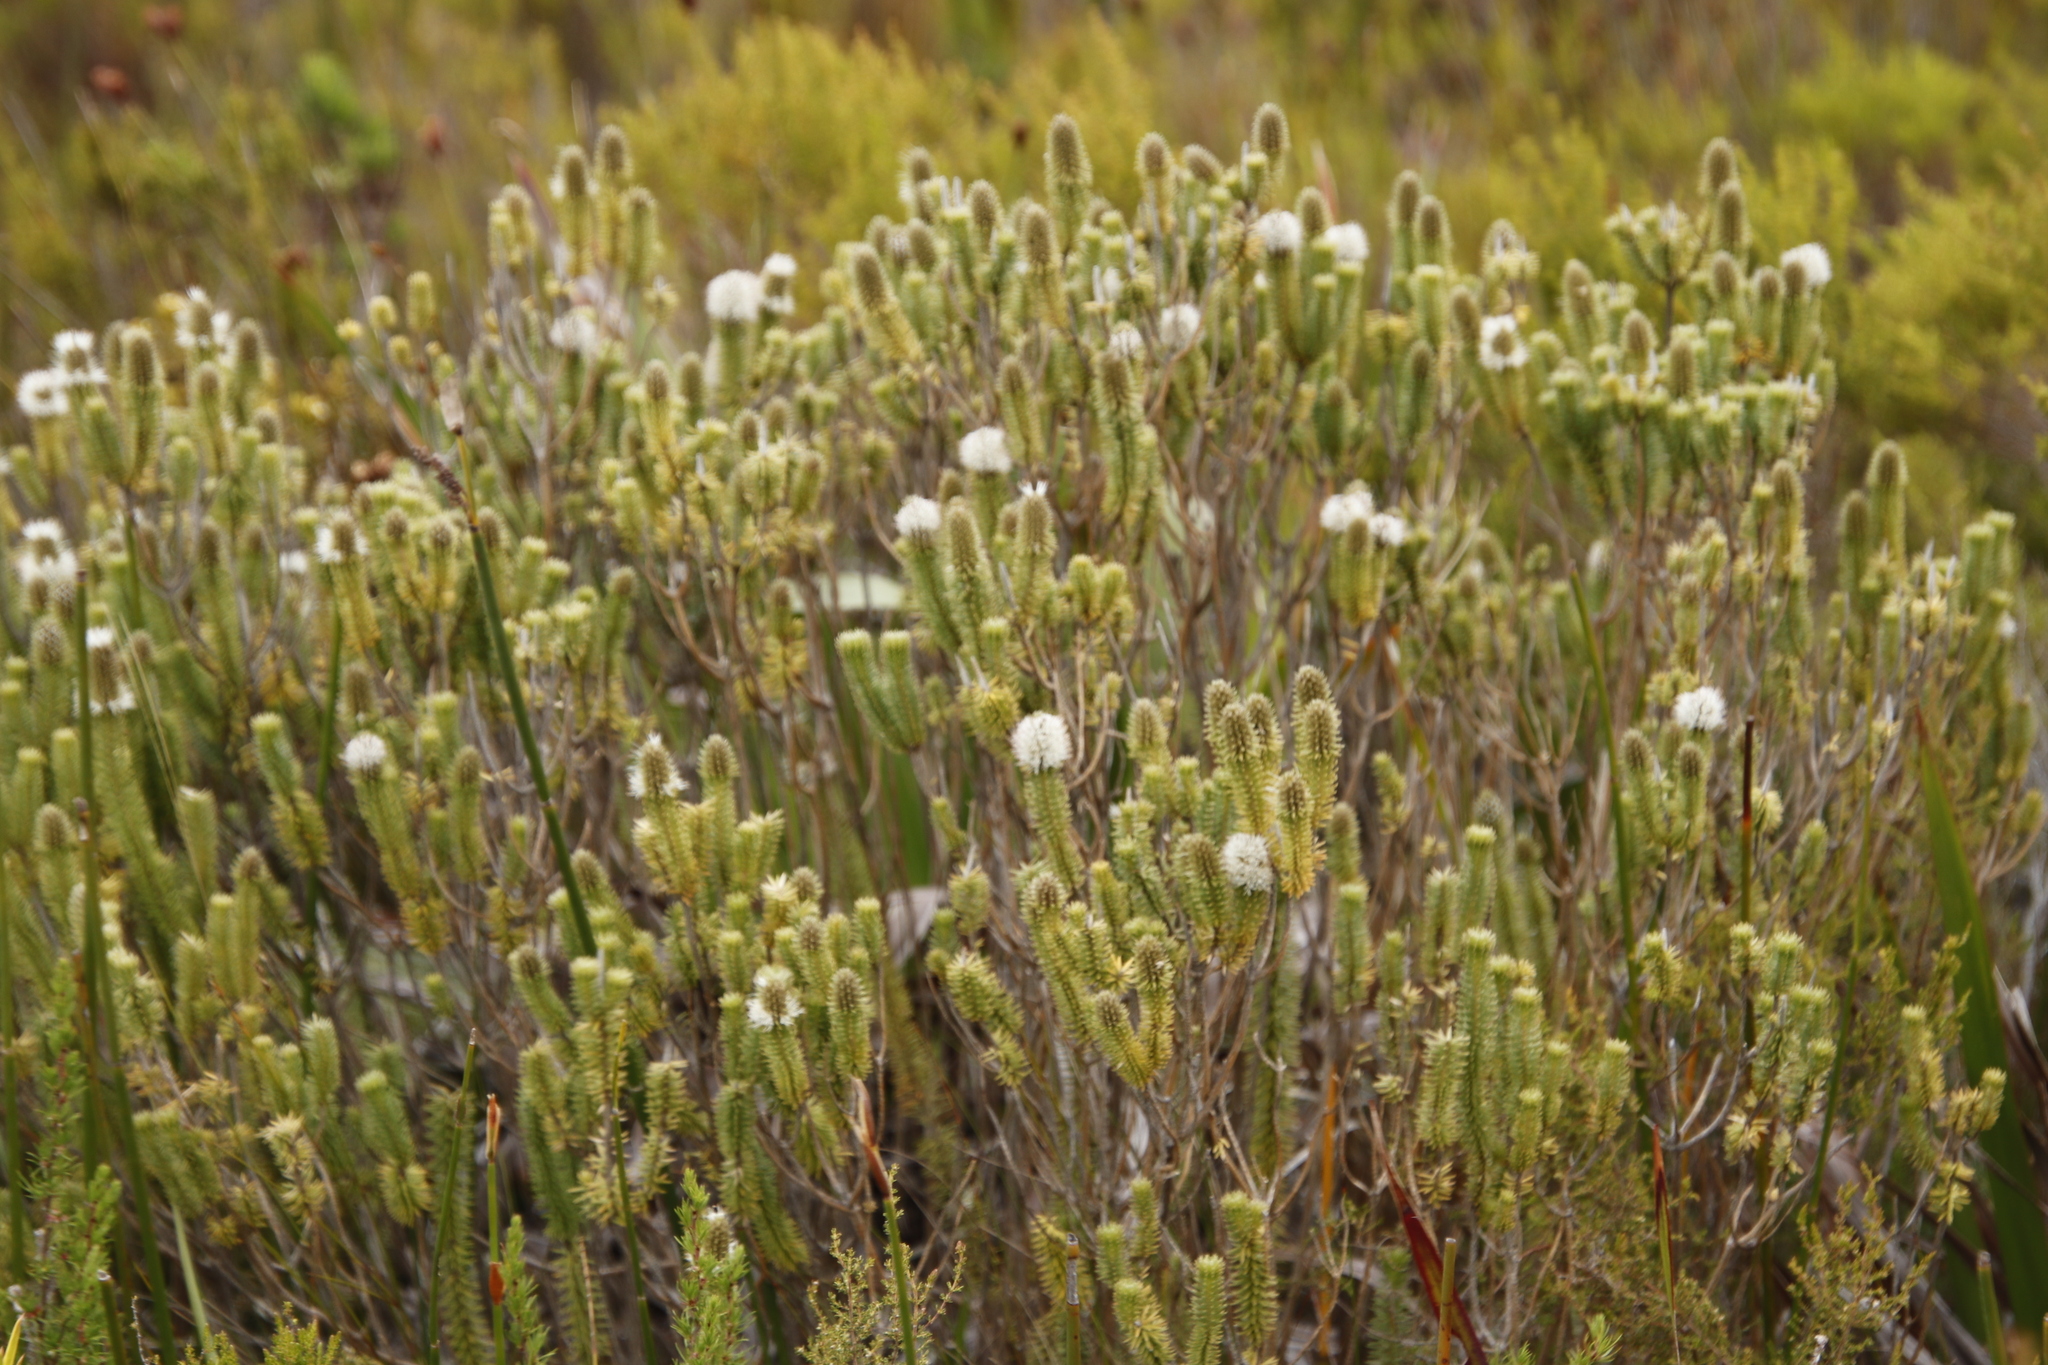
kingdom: Plantae
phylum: Tracheophyta
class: Magnoliopsida
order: Lamiales
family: Stilbaceae
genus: Stilbe
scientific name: Stilbe vestita
